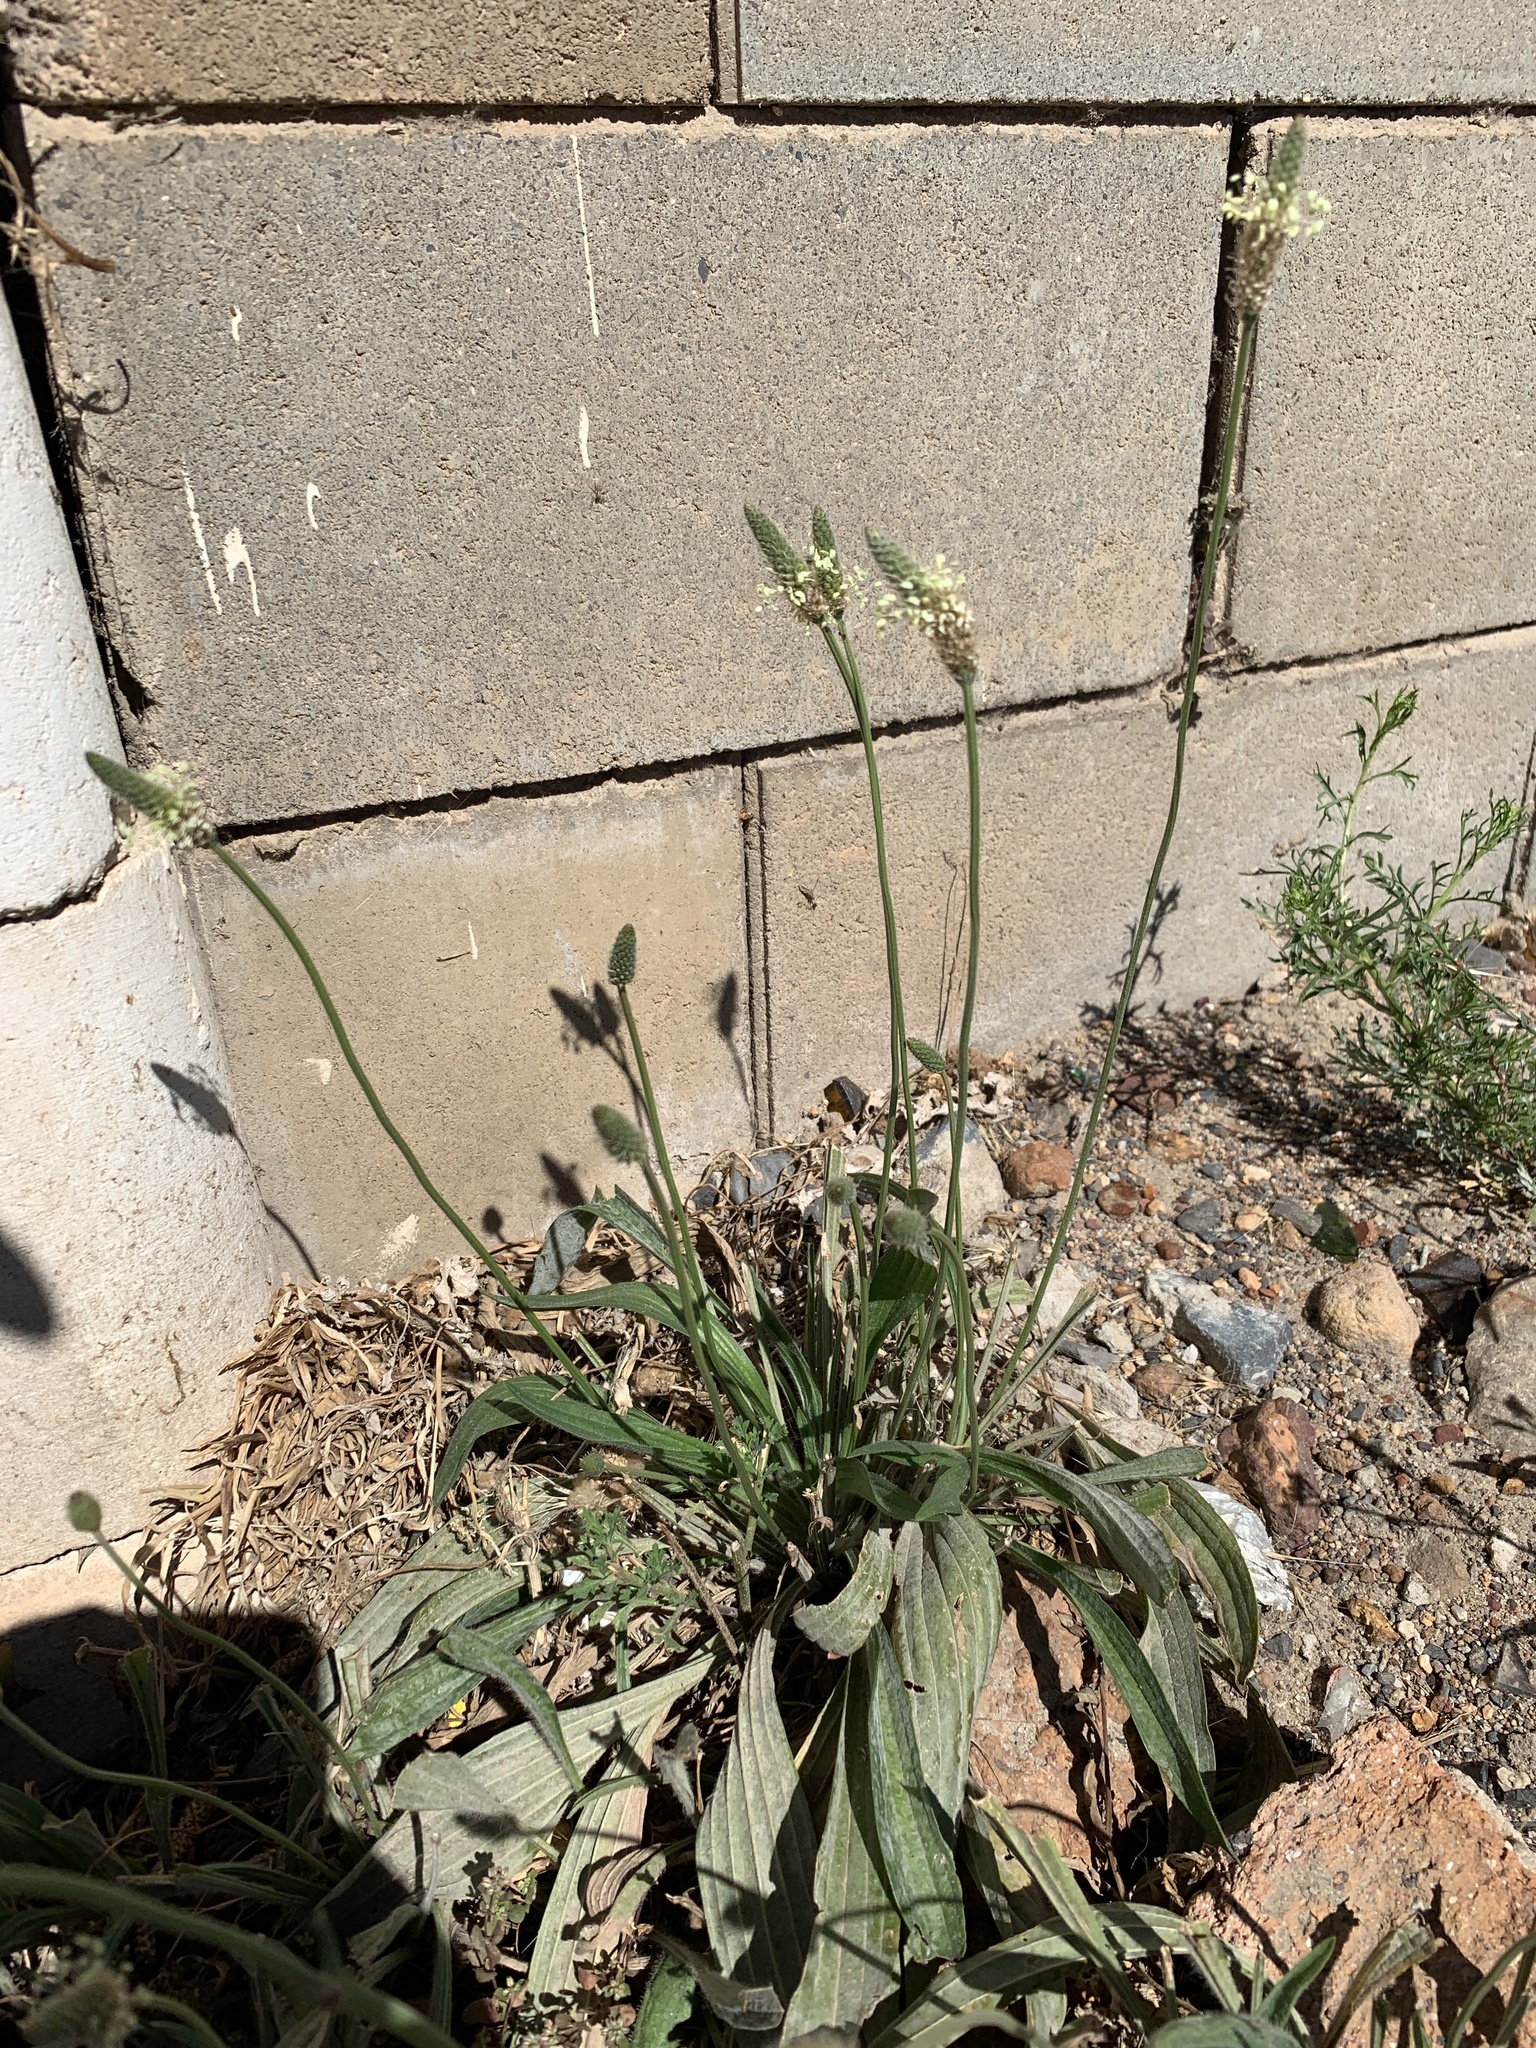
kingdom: Plantae
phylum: Tracheophyta
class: Magnoliopsida
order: Lamiales
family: Plantaginaceae
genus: Plantago
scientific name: Plantago lanceolata
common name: Ribwort plantain
